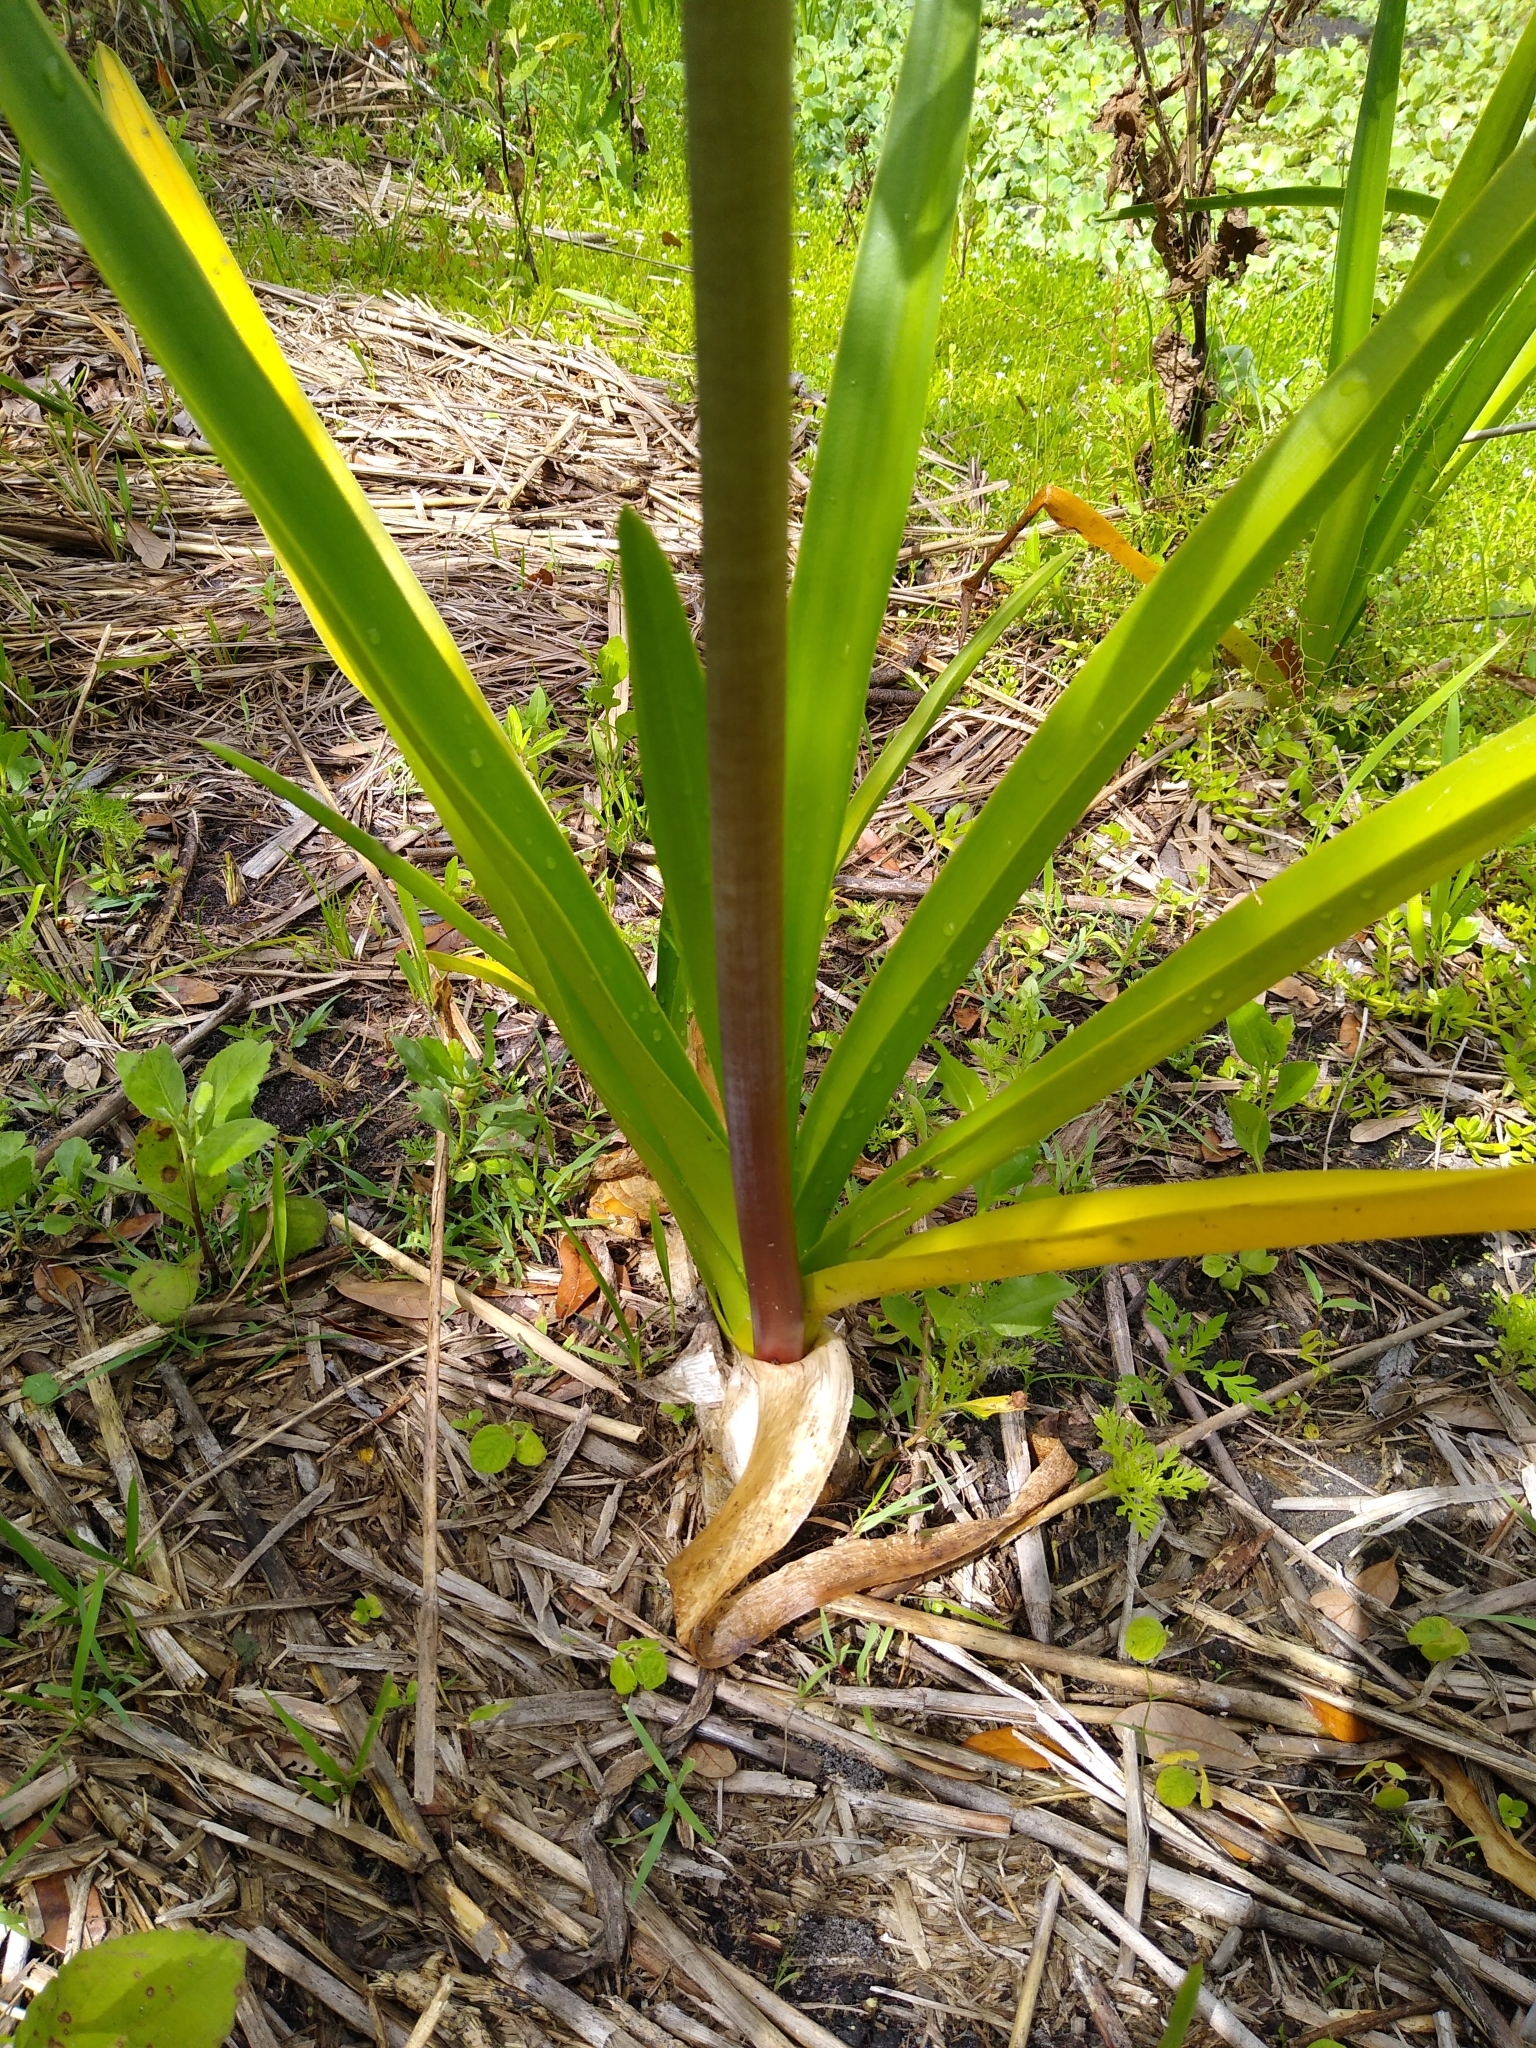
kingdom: Plantae
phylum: Tracheophyta
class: Liliopsida
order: Asparagales
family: Amaryllidaceae
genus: Crinum
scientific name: Crinum americanum
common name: Florida swamp-lily
